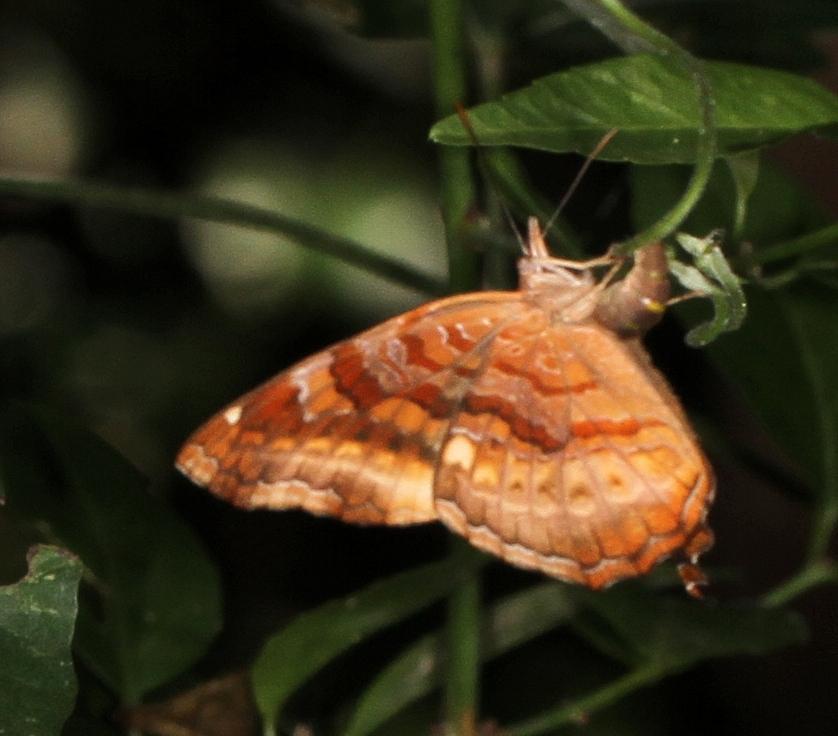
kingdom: Animalia
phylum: Arthropoda
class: Insecta
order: Lepidoptera
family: Nymphalidae
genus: Eurytela
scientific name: Eurytela dryope
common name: Golden piper
